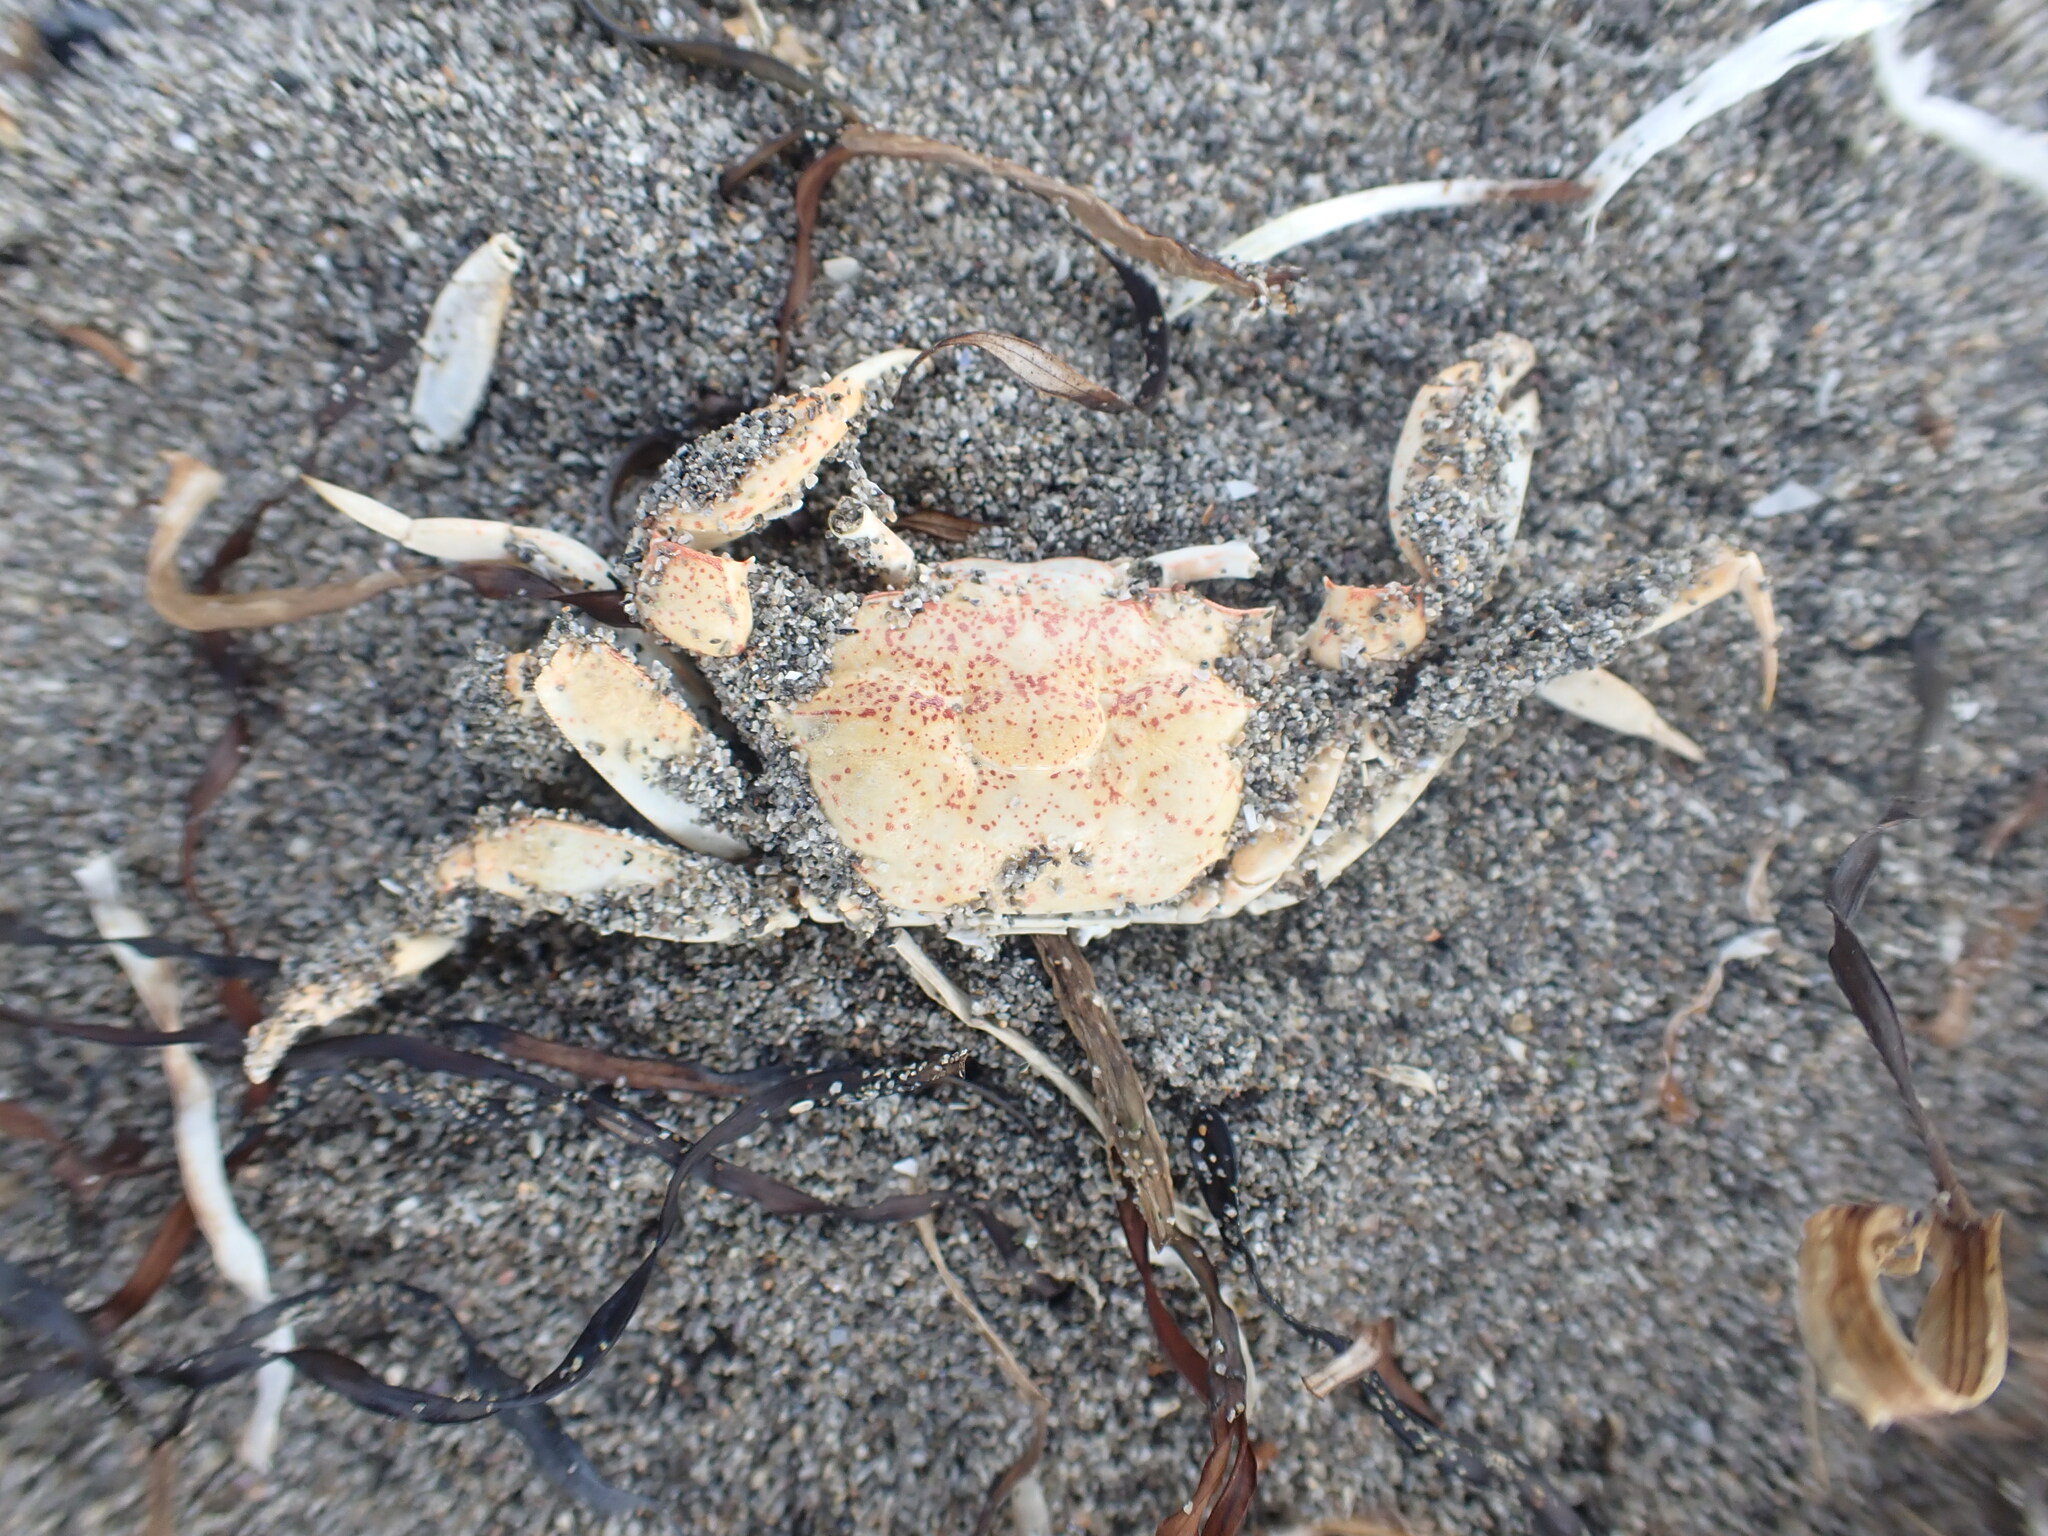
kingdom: Animalia
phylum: Arthropoda
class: Malacostraca
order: Decapoda
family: Macrophthalmidae
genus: Hemiplax
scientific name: Hemiplax hirtipes
